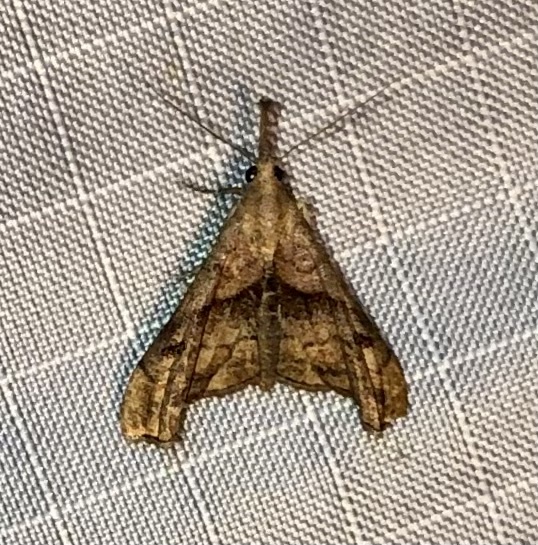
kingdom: Animalia
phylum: Arthropoda
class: Insecta
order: Lepidoptera
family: Erebidae
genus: Palthis
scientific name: Palthis angulalis
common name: Dark-spotted palthis moth
